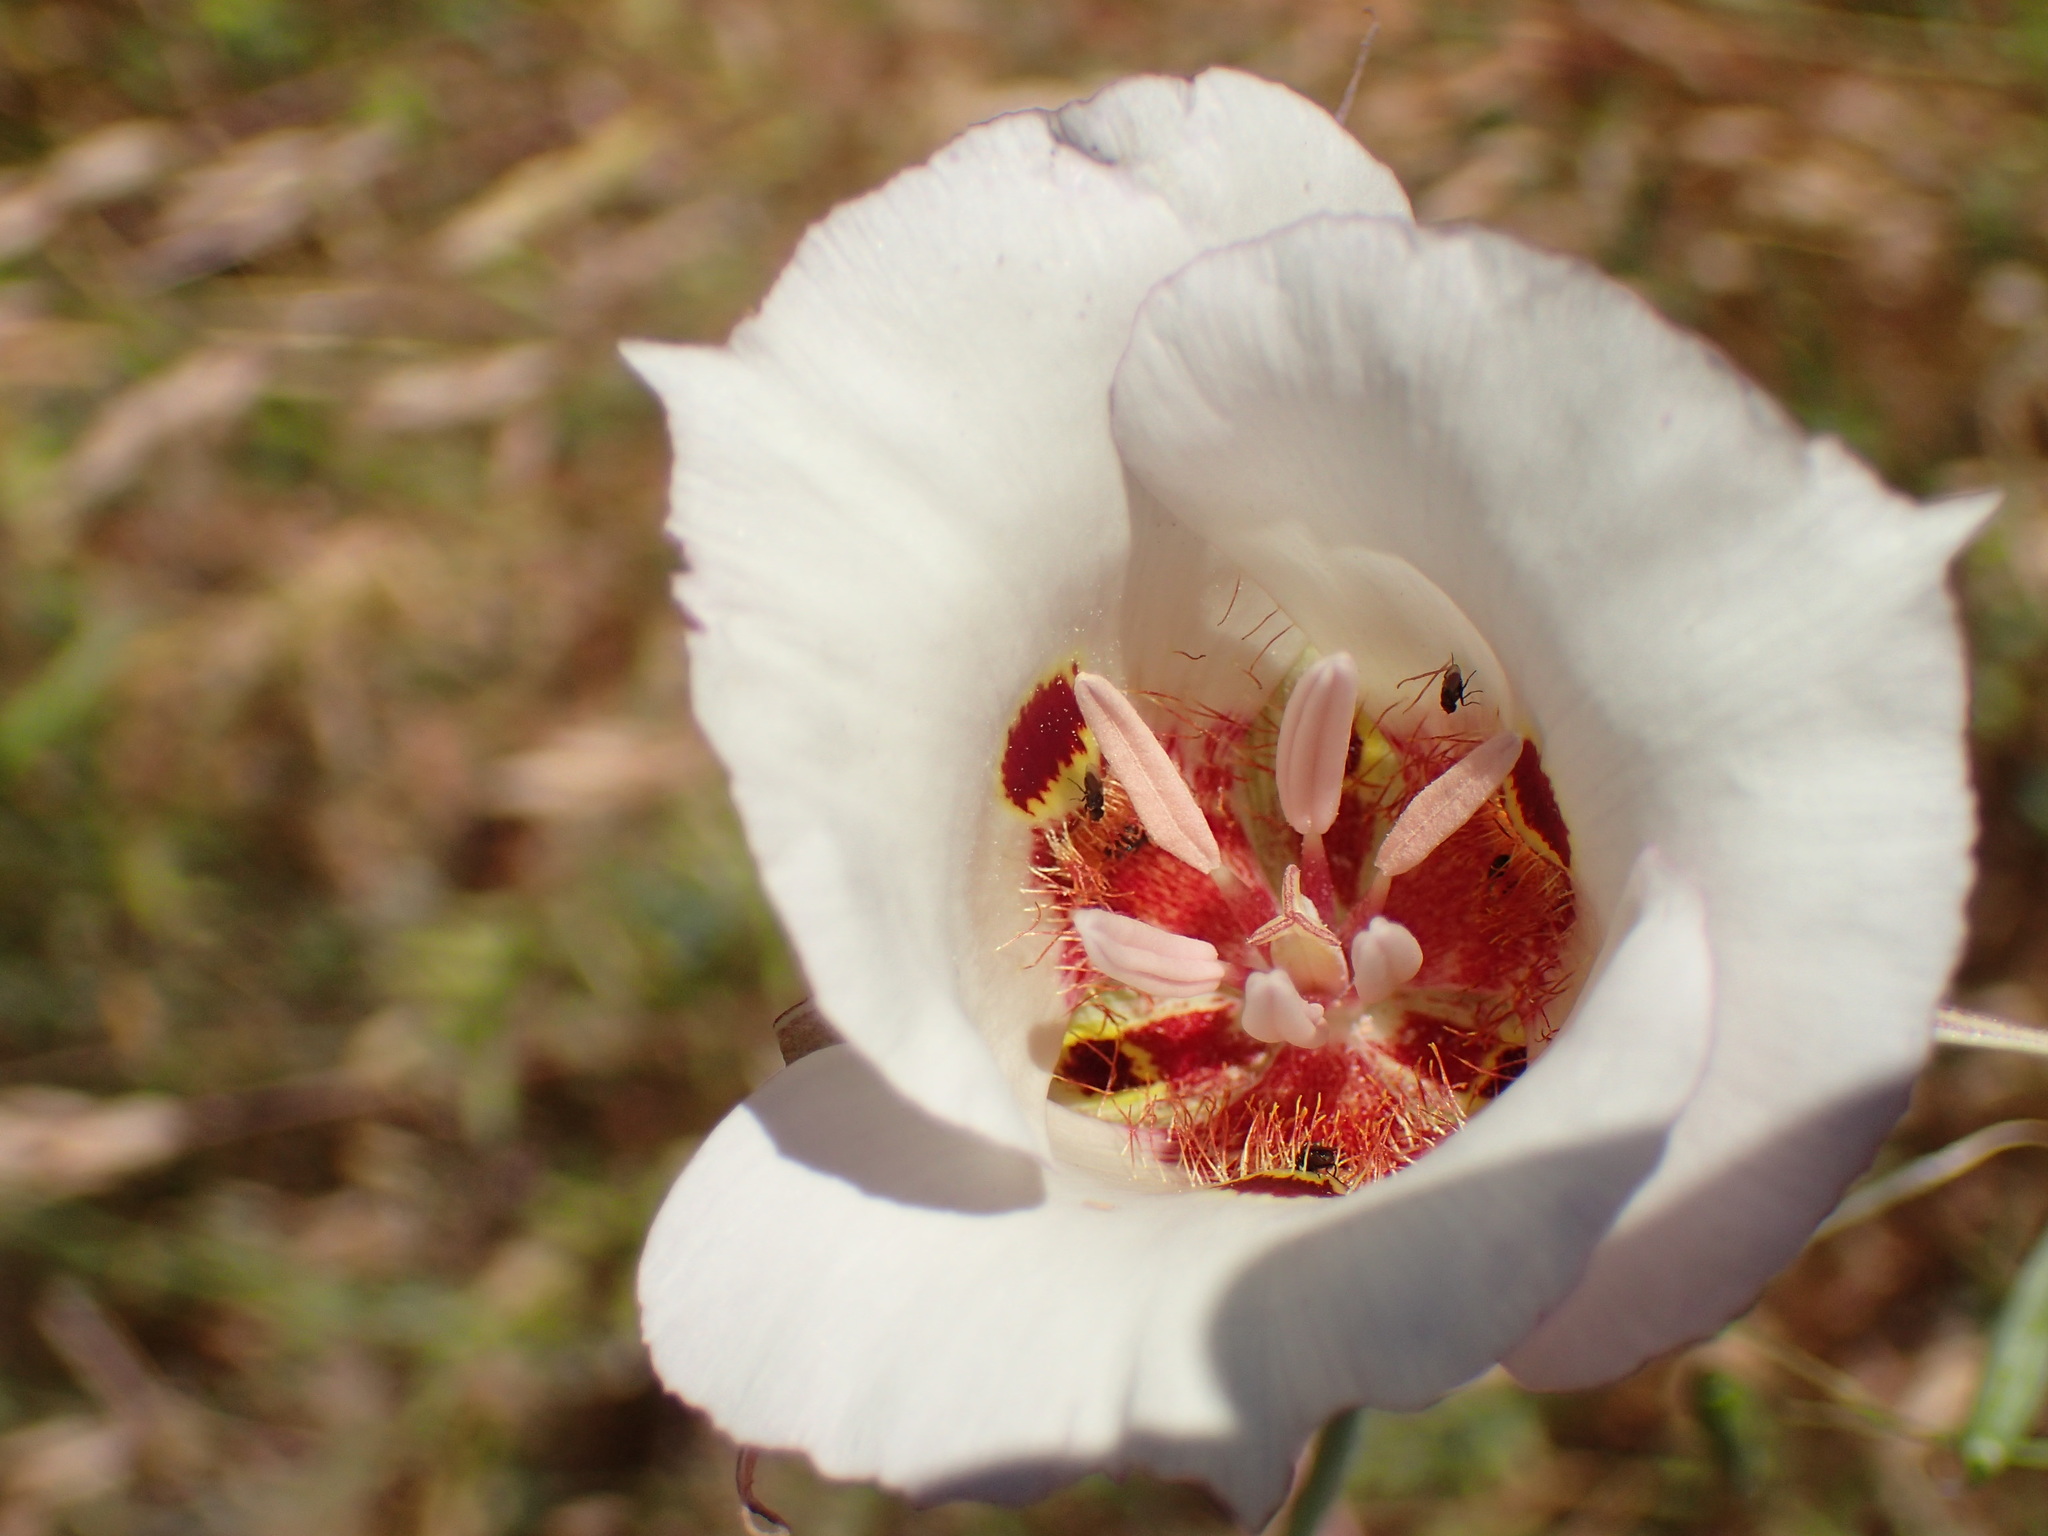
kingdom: Plantae
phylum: Tracheophyta
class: Liliopsida
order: Liliales
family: Liliaceae
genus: Calochortus
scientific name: Calochortus venustus
